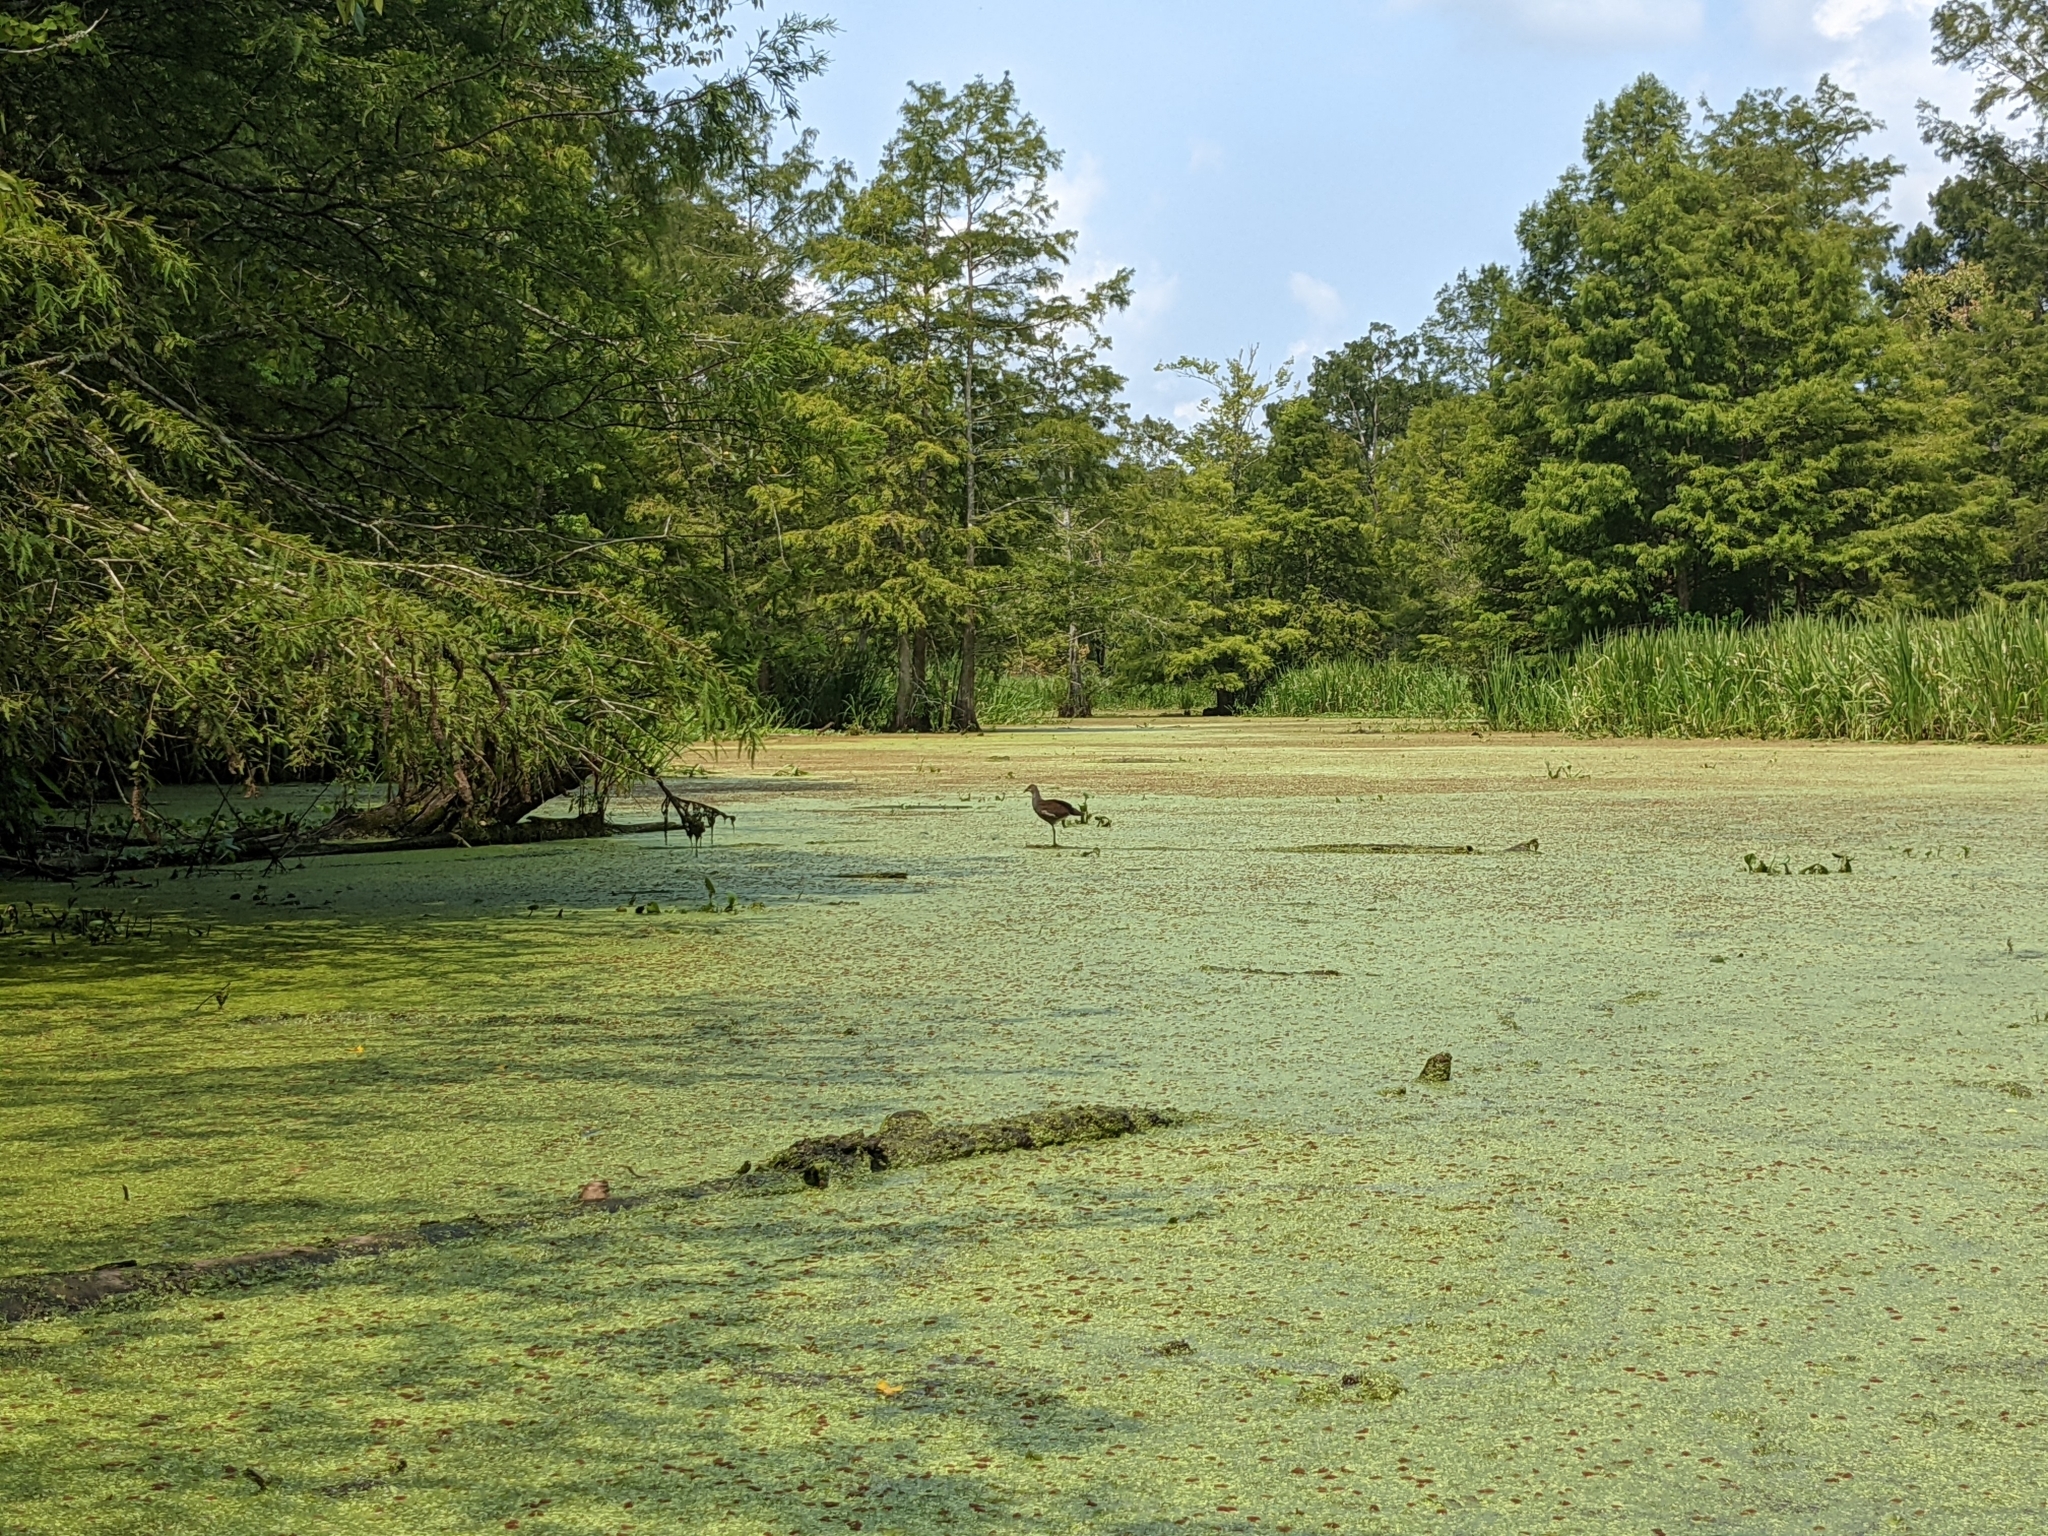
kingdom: Animalia
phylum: Chordata
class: Aves
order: Gruiformes
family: Rallidae
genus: Gallinula
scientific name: Gallinula chloropus
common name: Common moorhen
